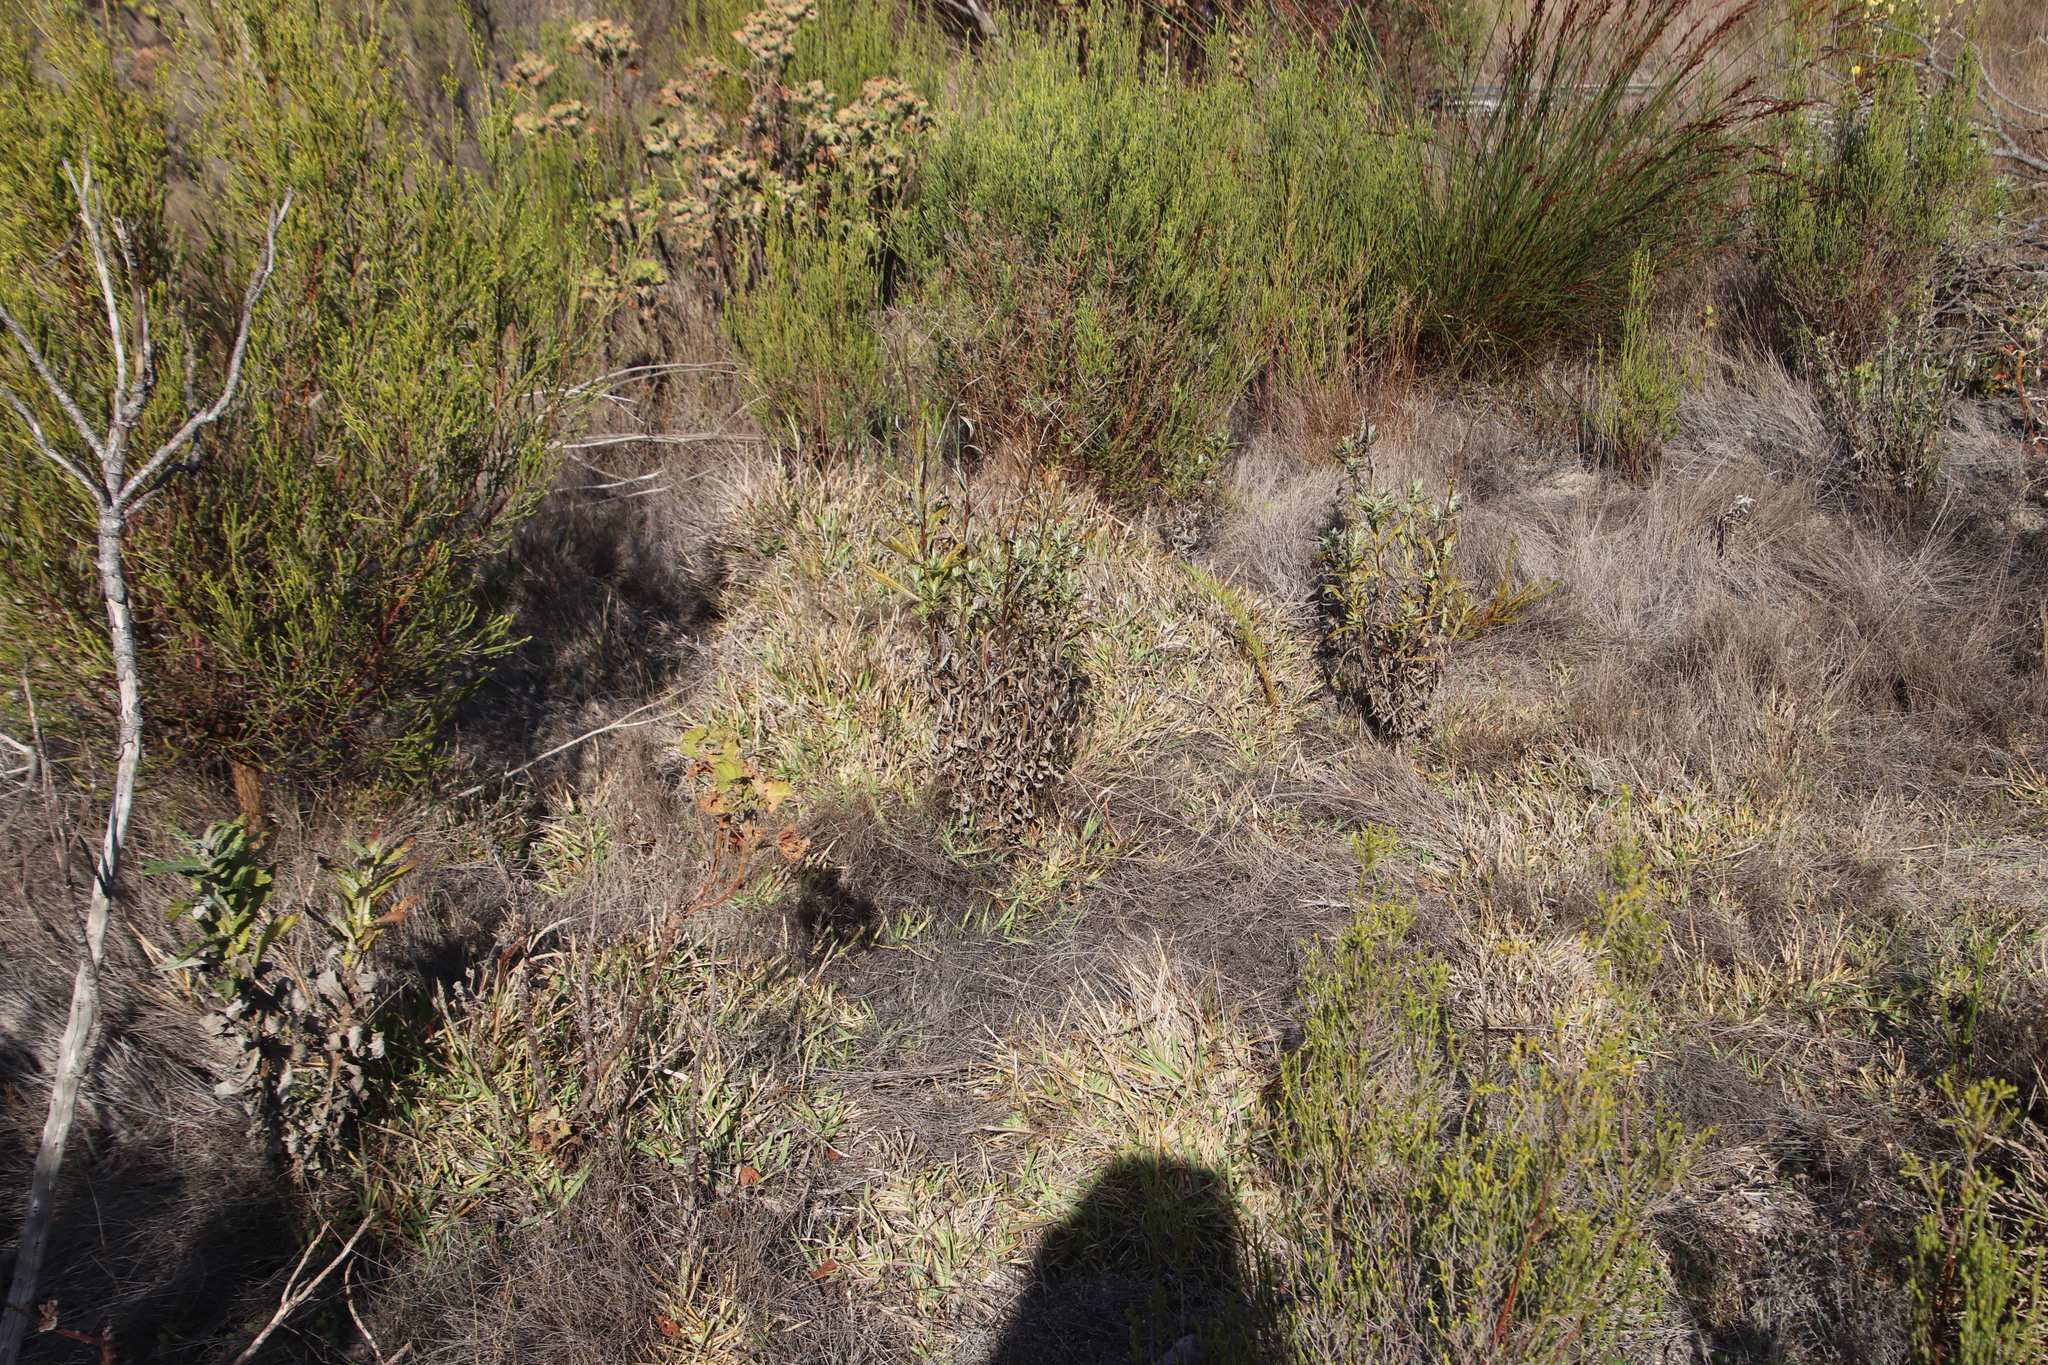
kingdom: Plantae
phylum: Tracheophyta
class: Liliopsida
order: Poales
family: Poaceae
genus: Stenotaphrum
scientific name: Stenotaphrum secundatum
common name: St. augustine grass
